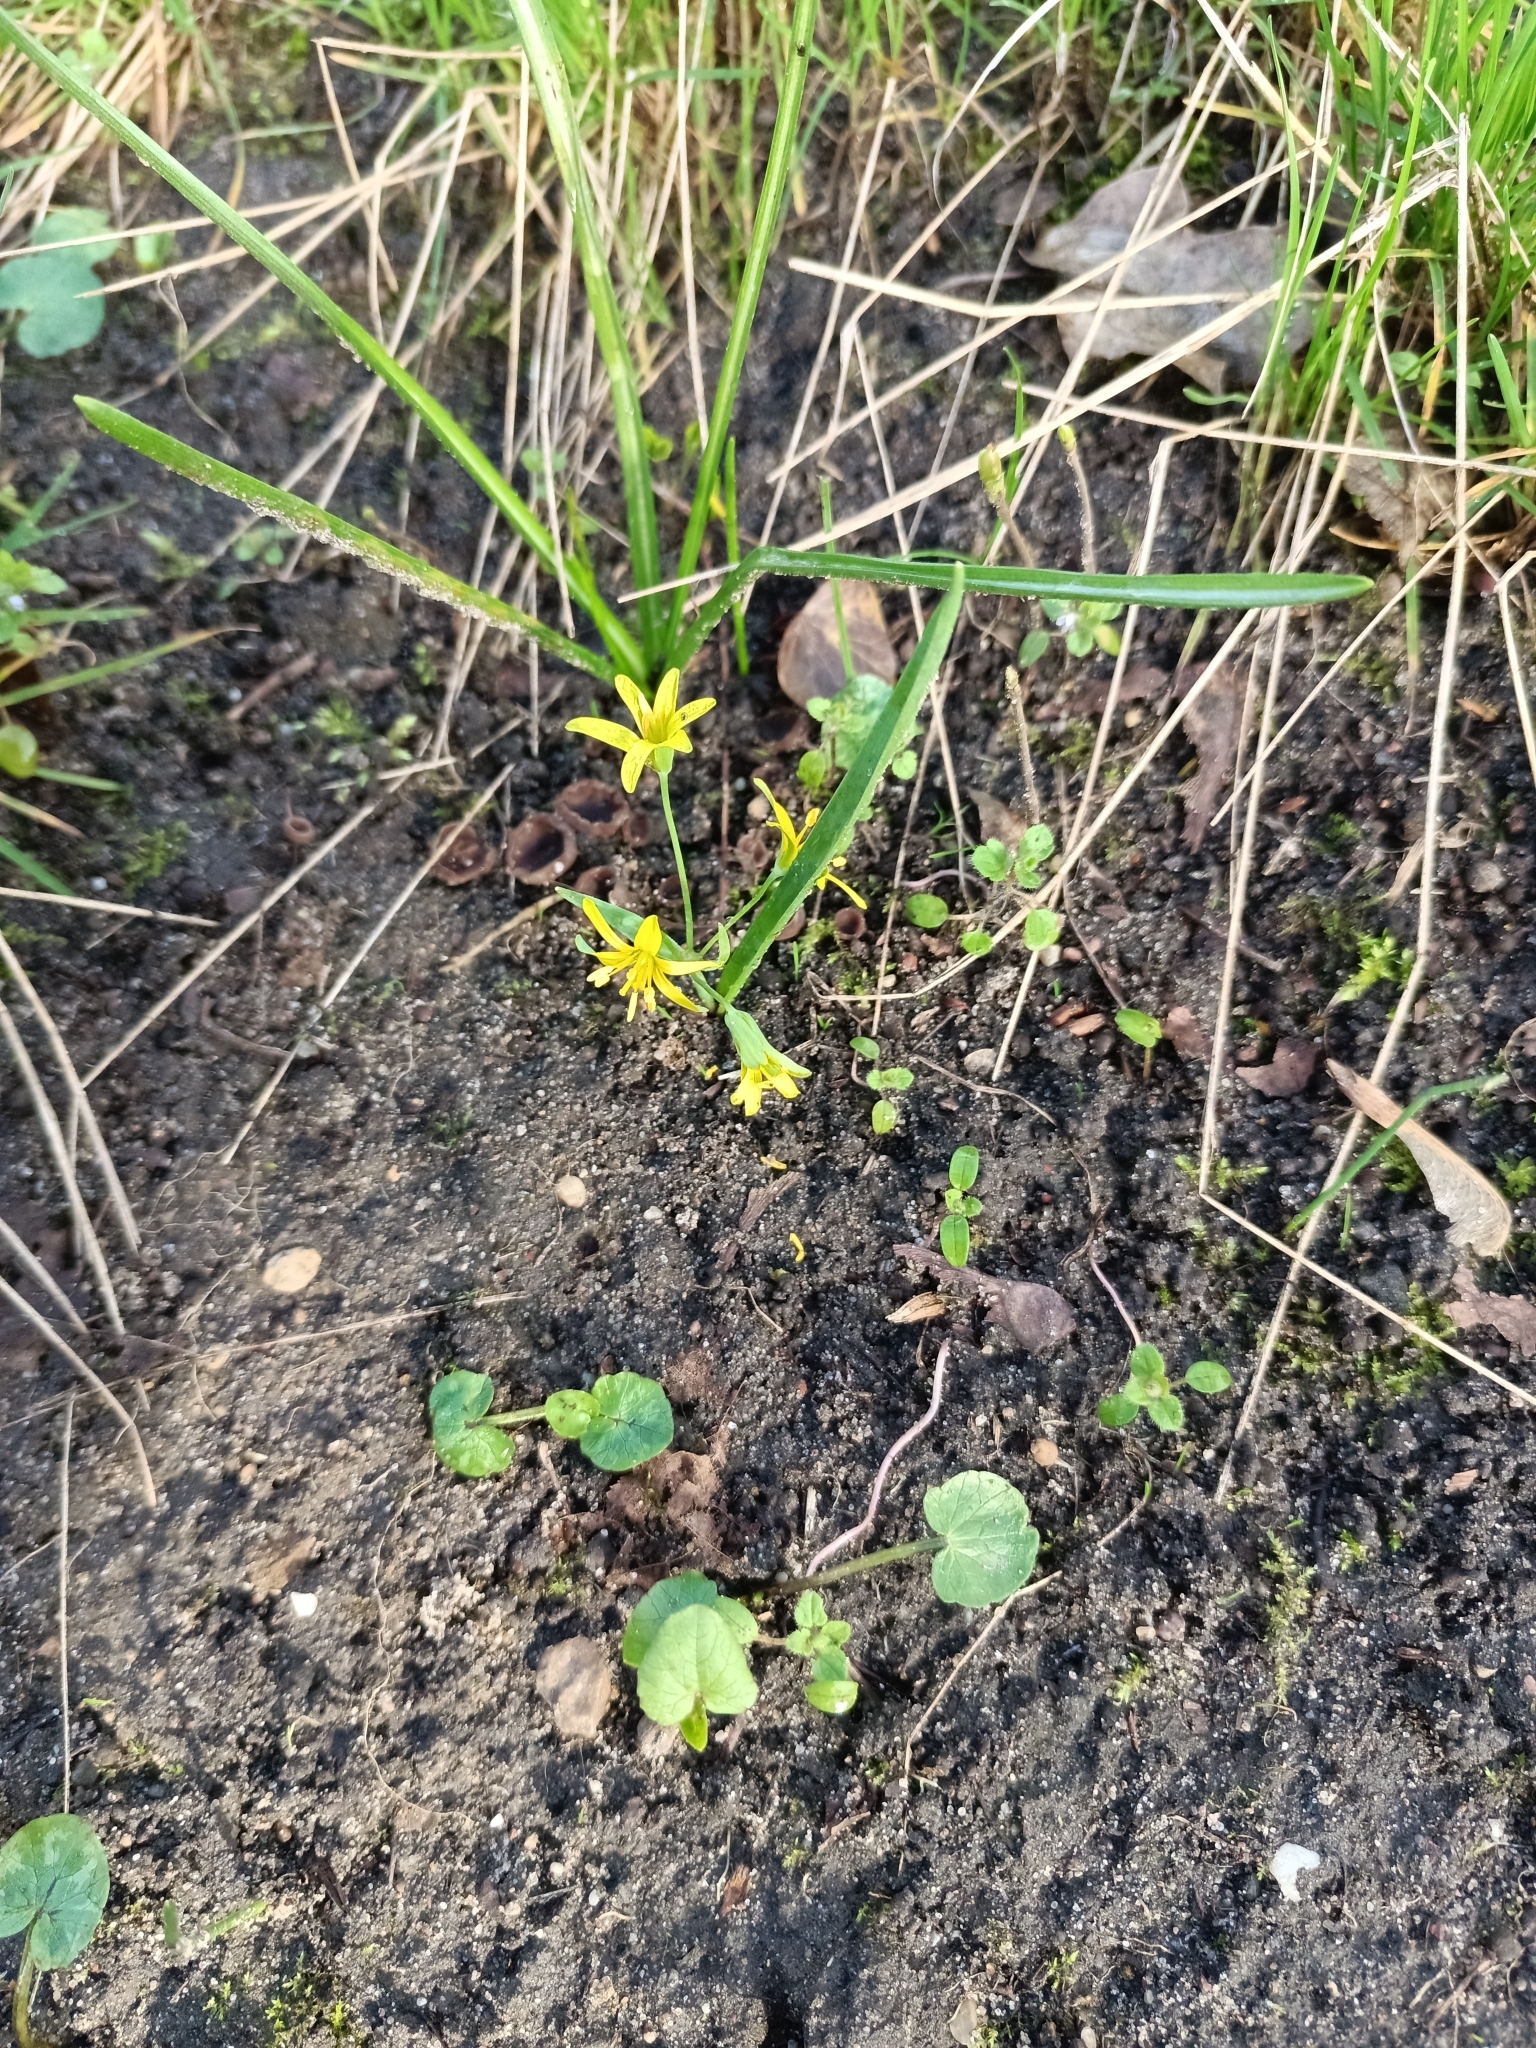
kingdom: Plantae
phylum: Tracheophyta
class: Liliopsida
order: Liliales
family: Liliaceae
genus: Gagea
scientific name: Gagea lutea
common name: Yellow star-of-bethlehem
